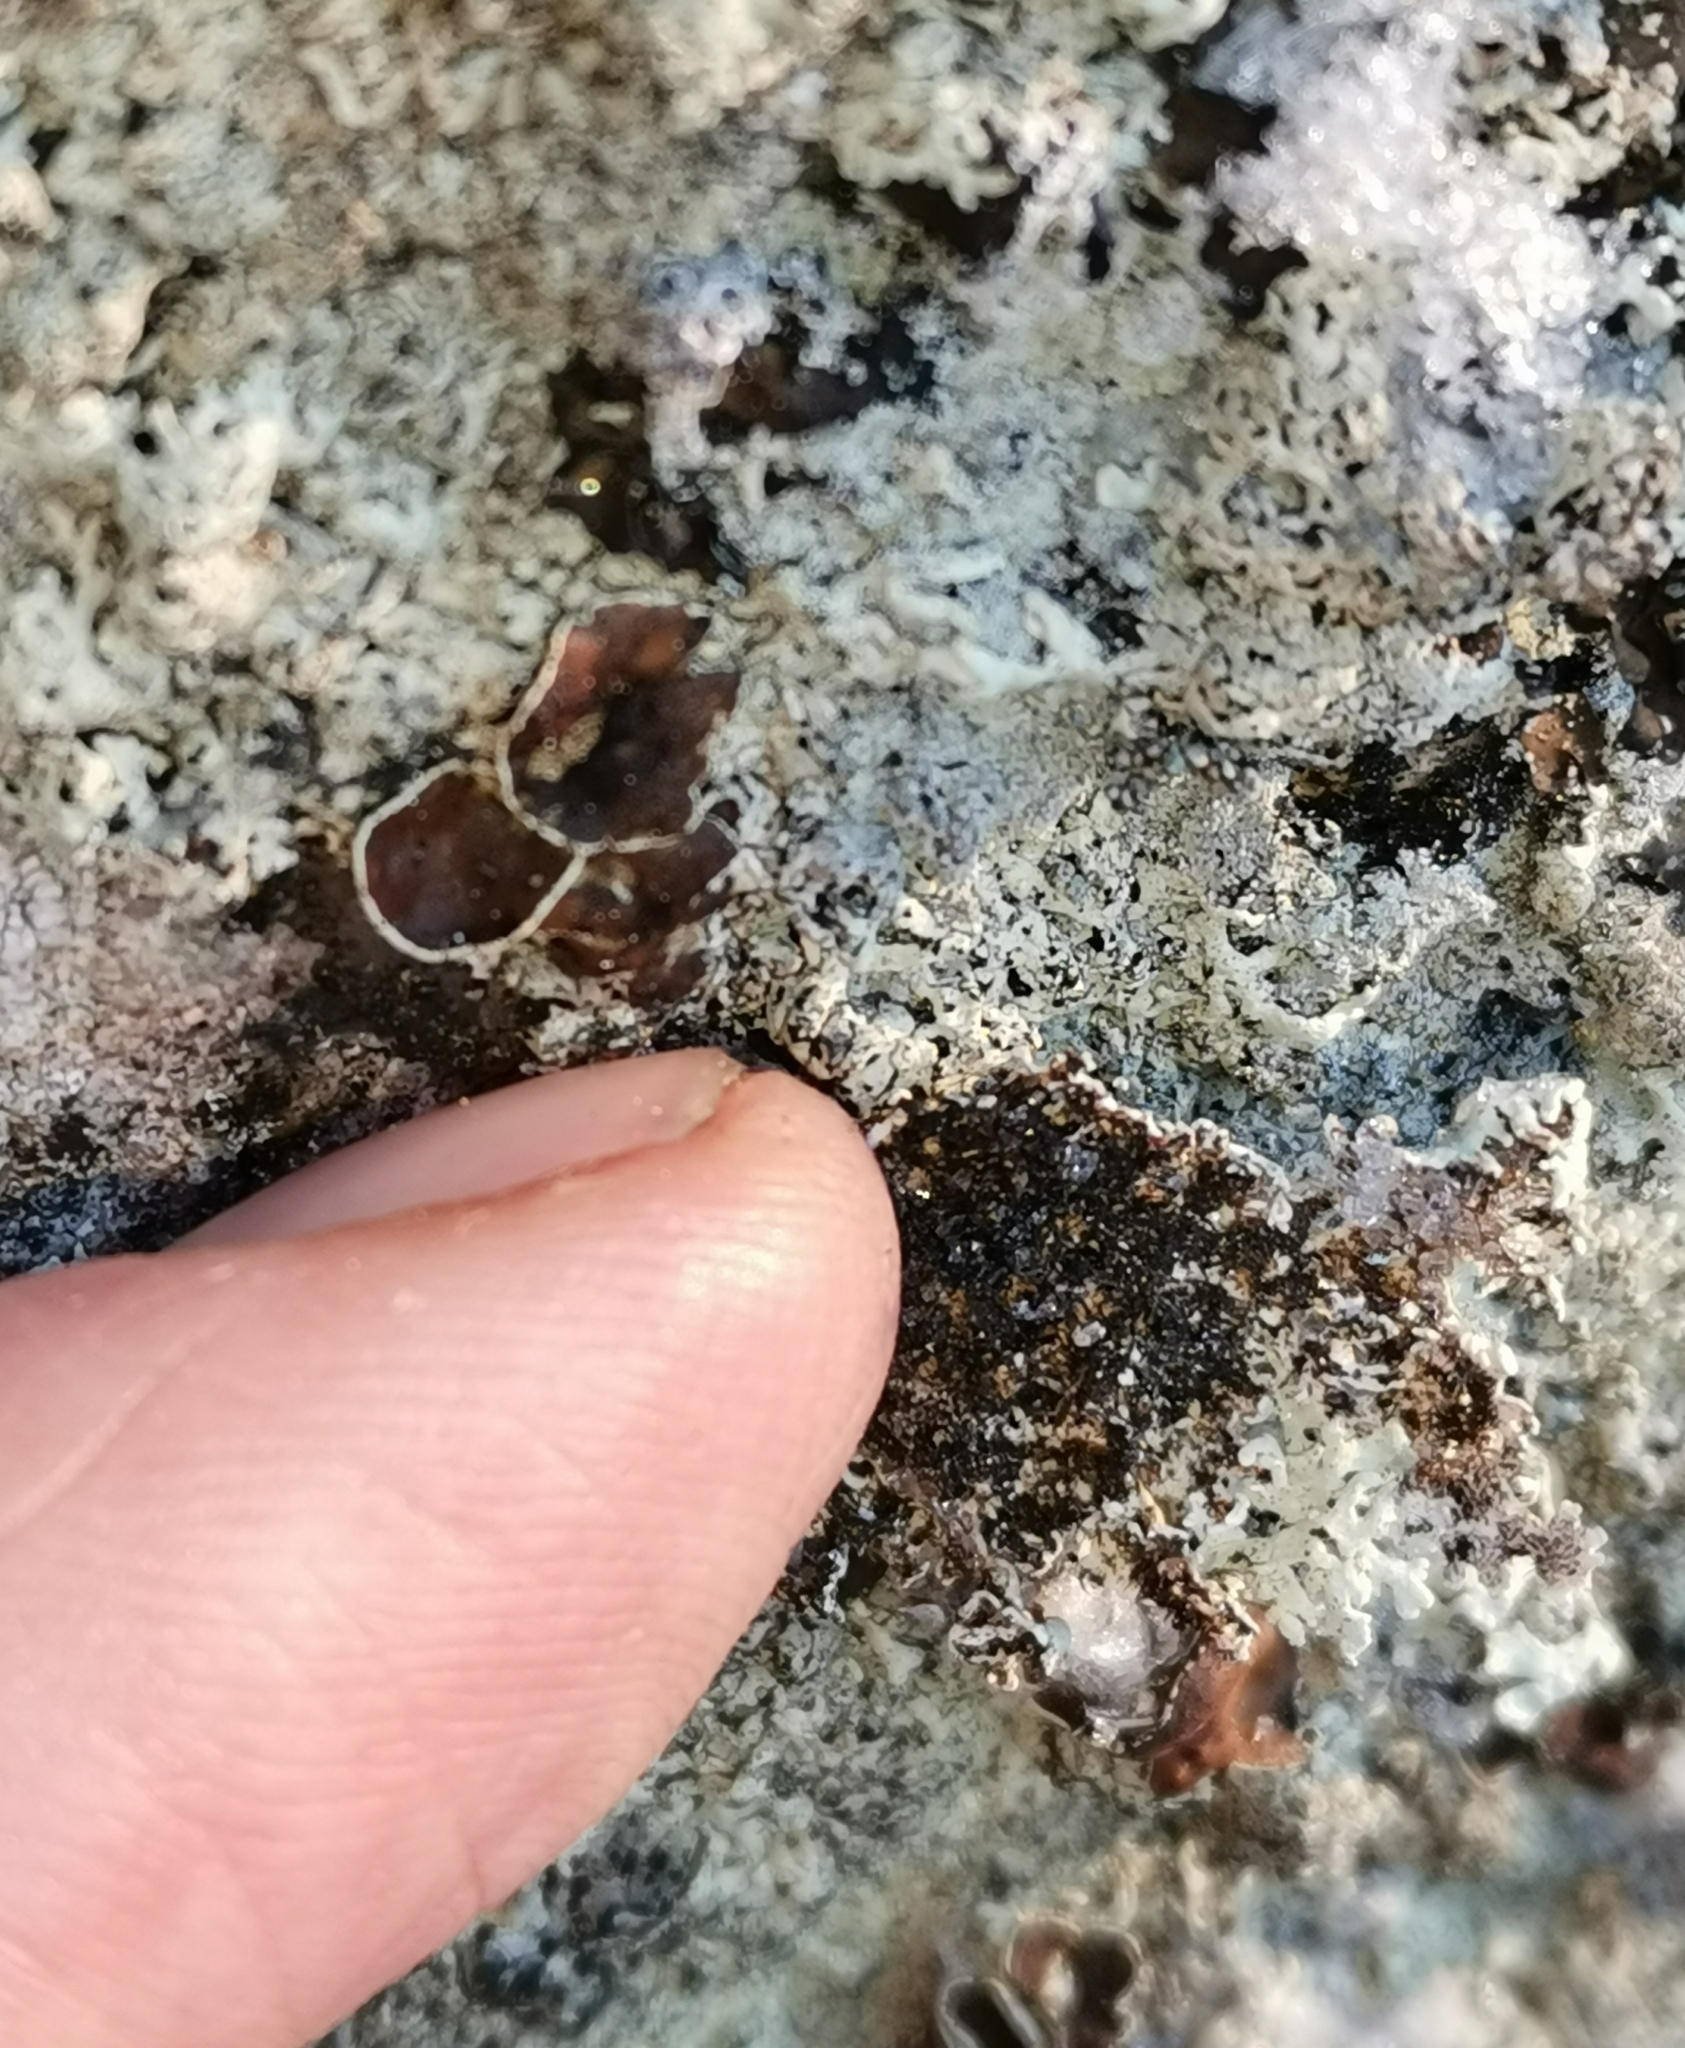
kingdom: Fungi
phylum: Ascomycota
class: Lecanoromycetes
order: Lecanorales
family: Parmeliaceae
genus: Arctoparmelia
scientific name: Arctoparmelia centrifuga
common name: Concentric ring lichen
